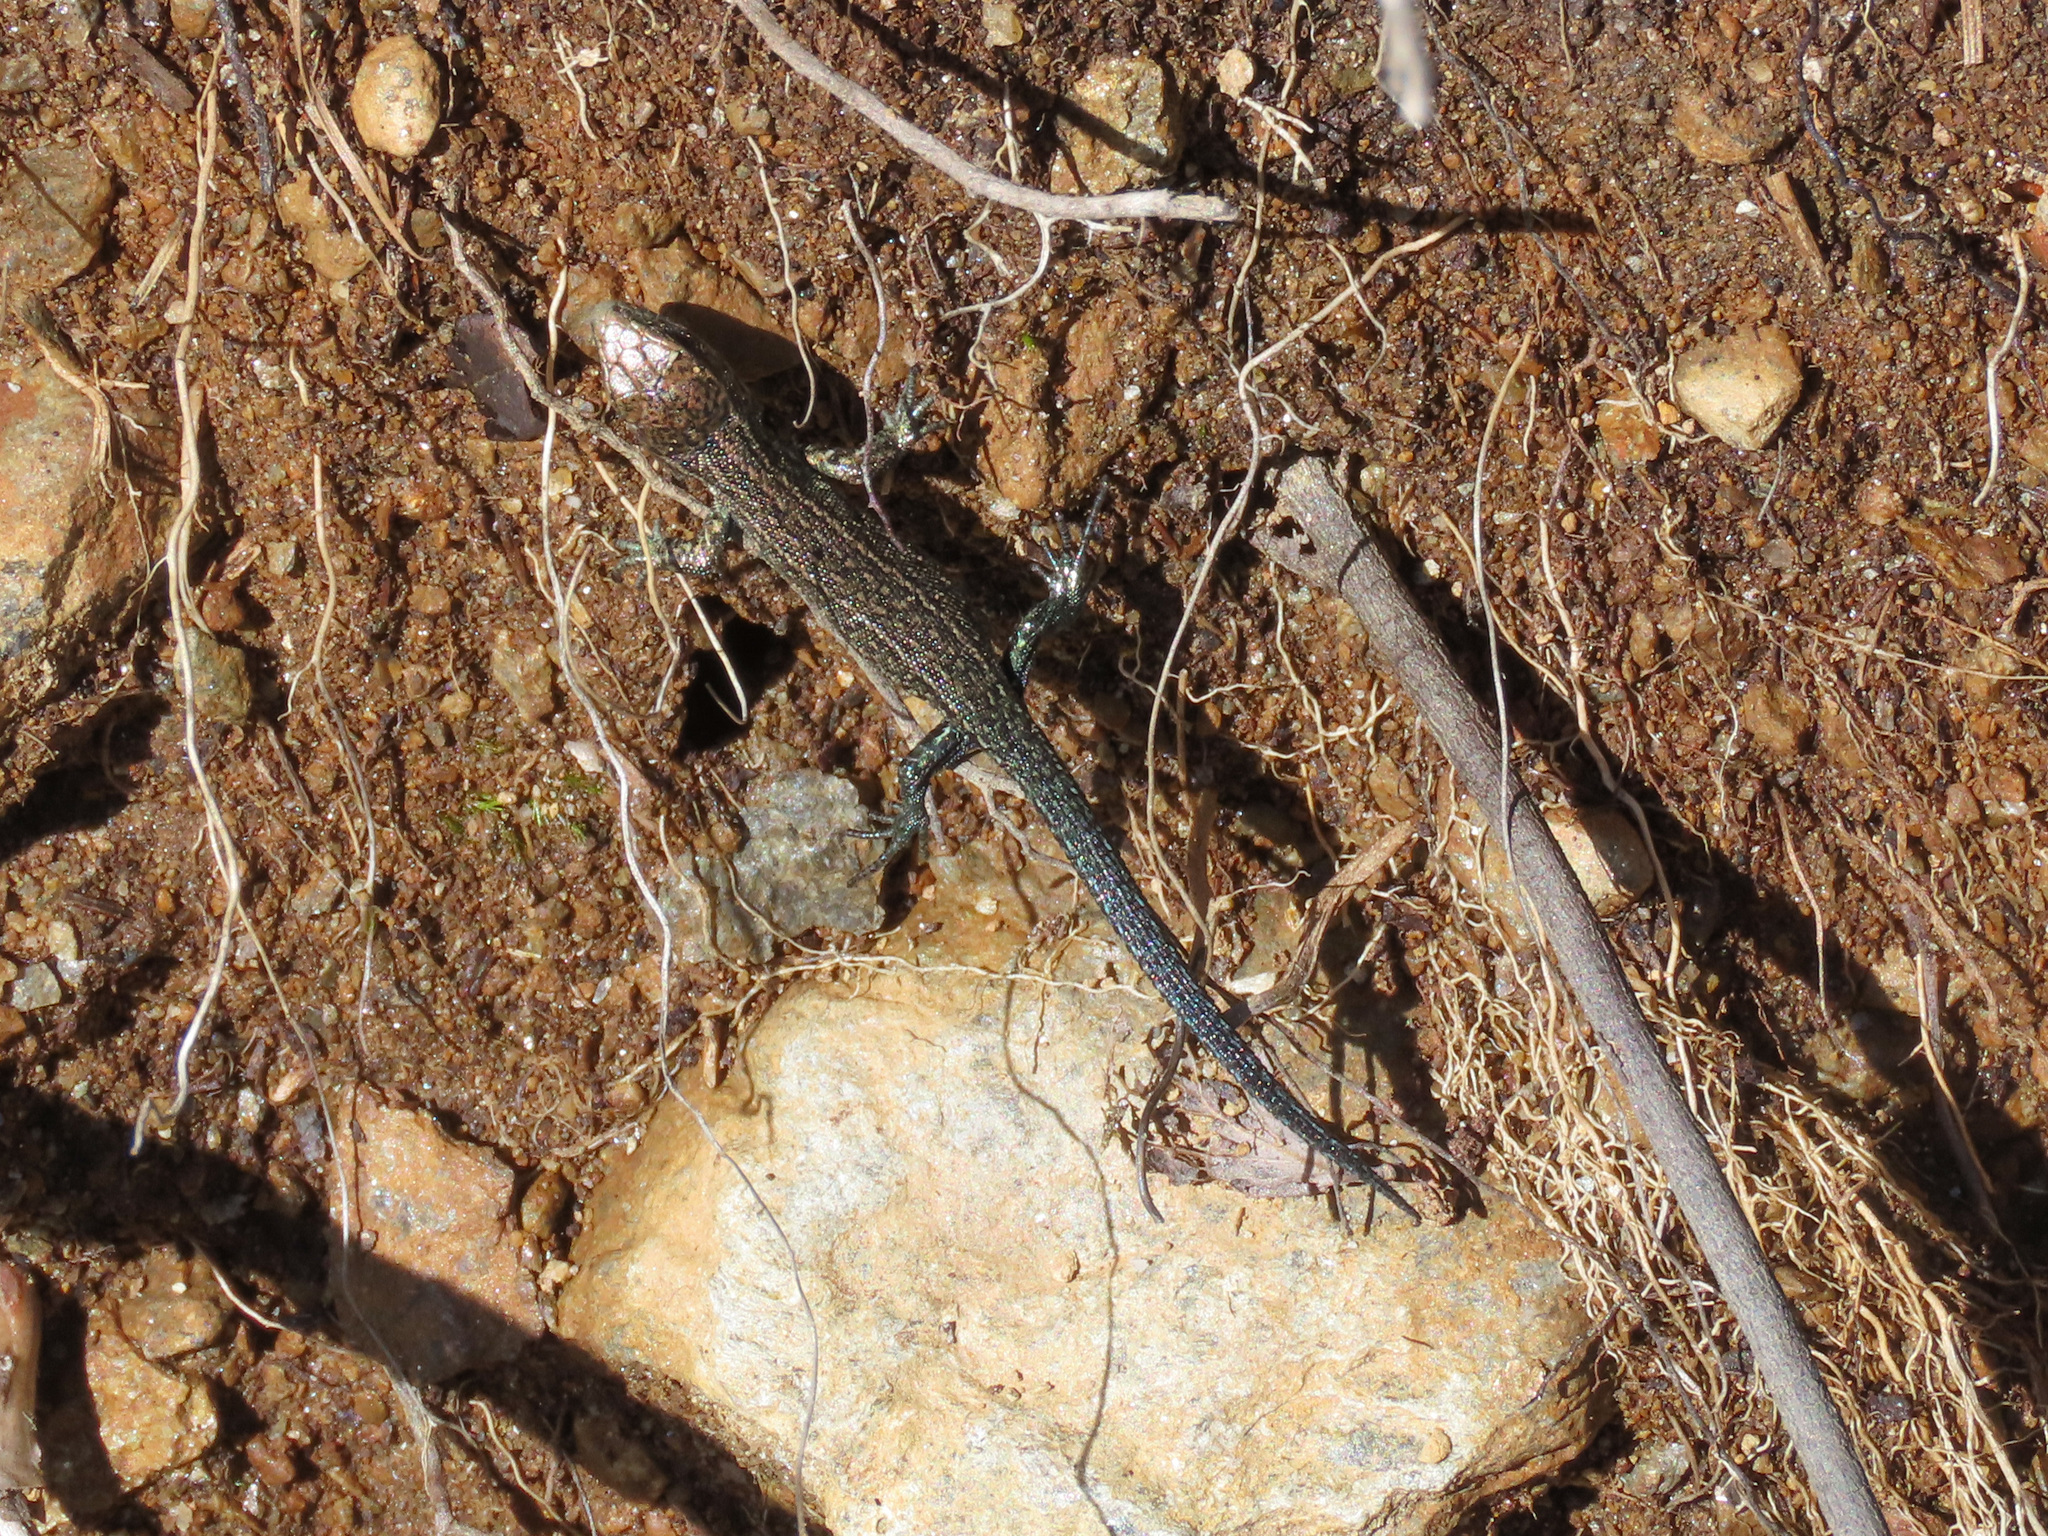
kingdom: Animalia
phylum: Chordata
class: Squamata
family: Lacertidae
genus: Zootoca
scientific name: Zootoca vivipara
